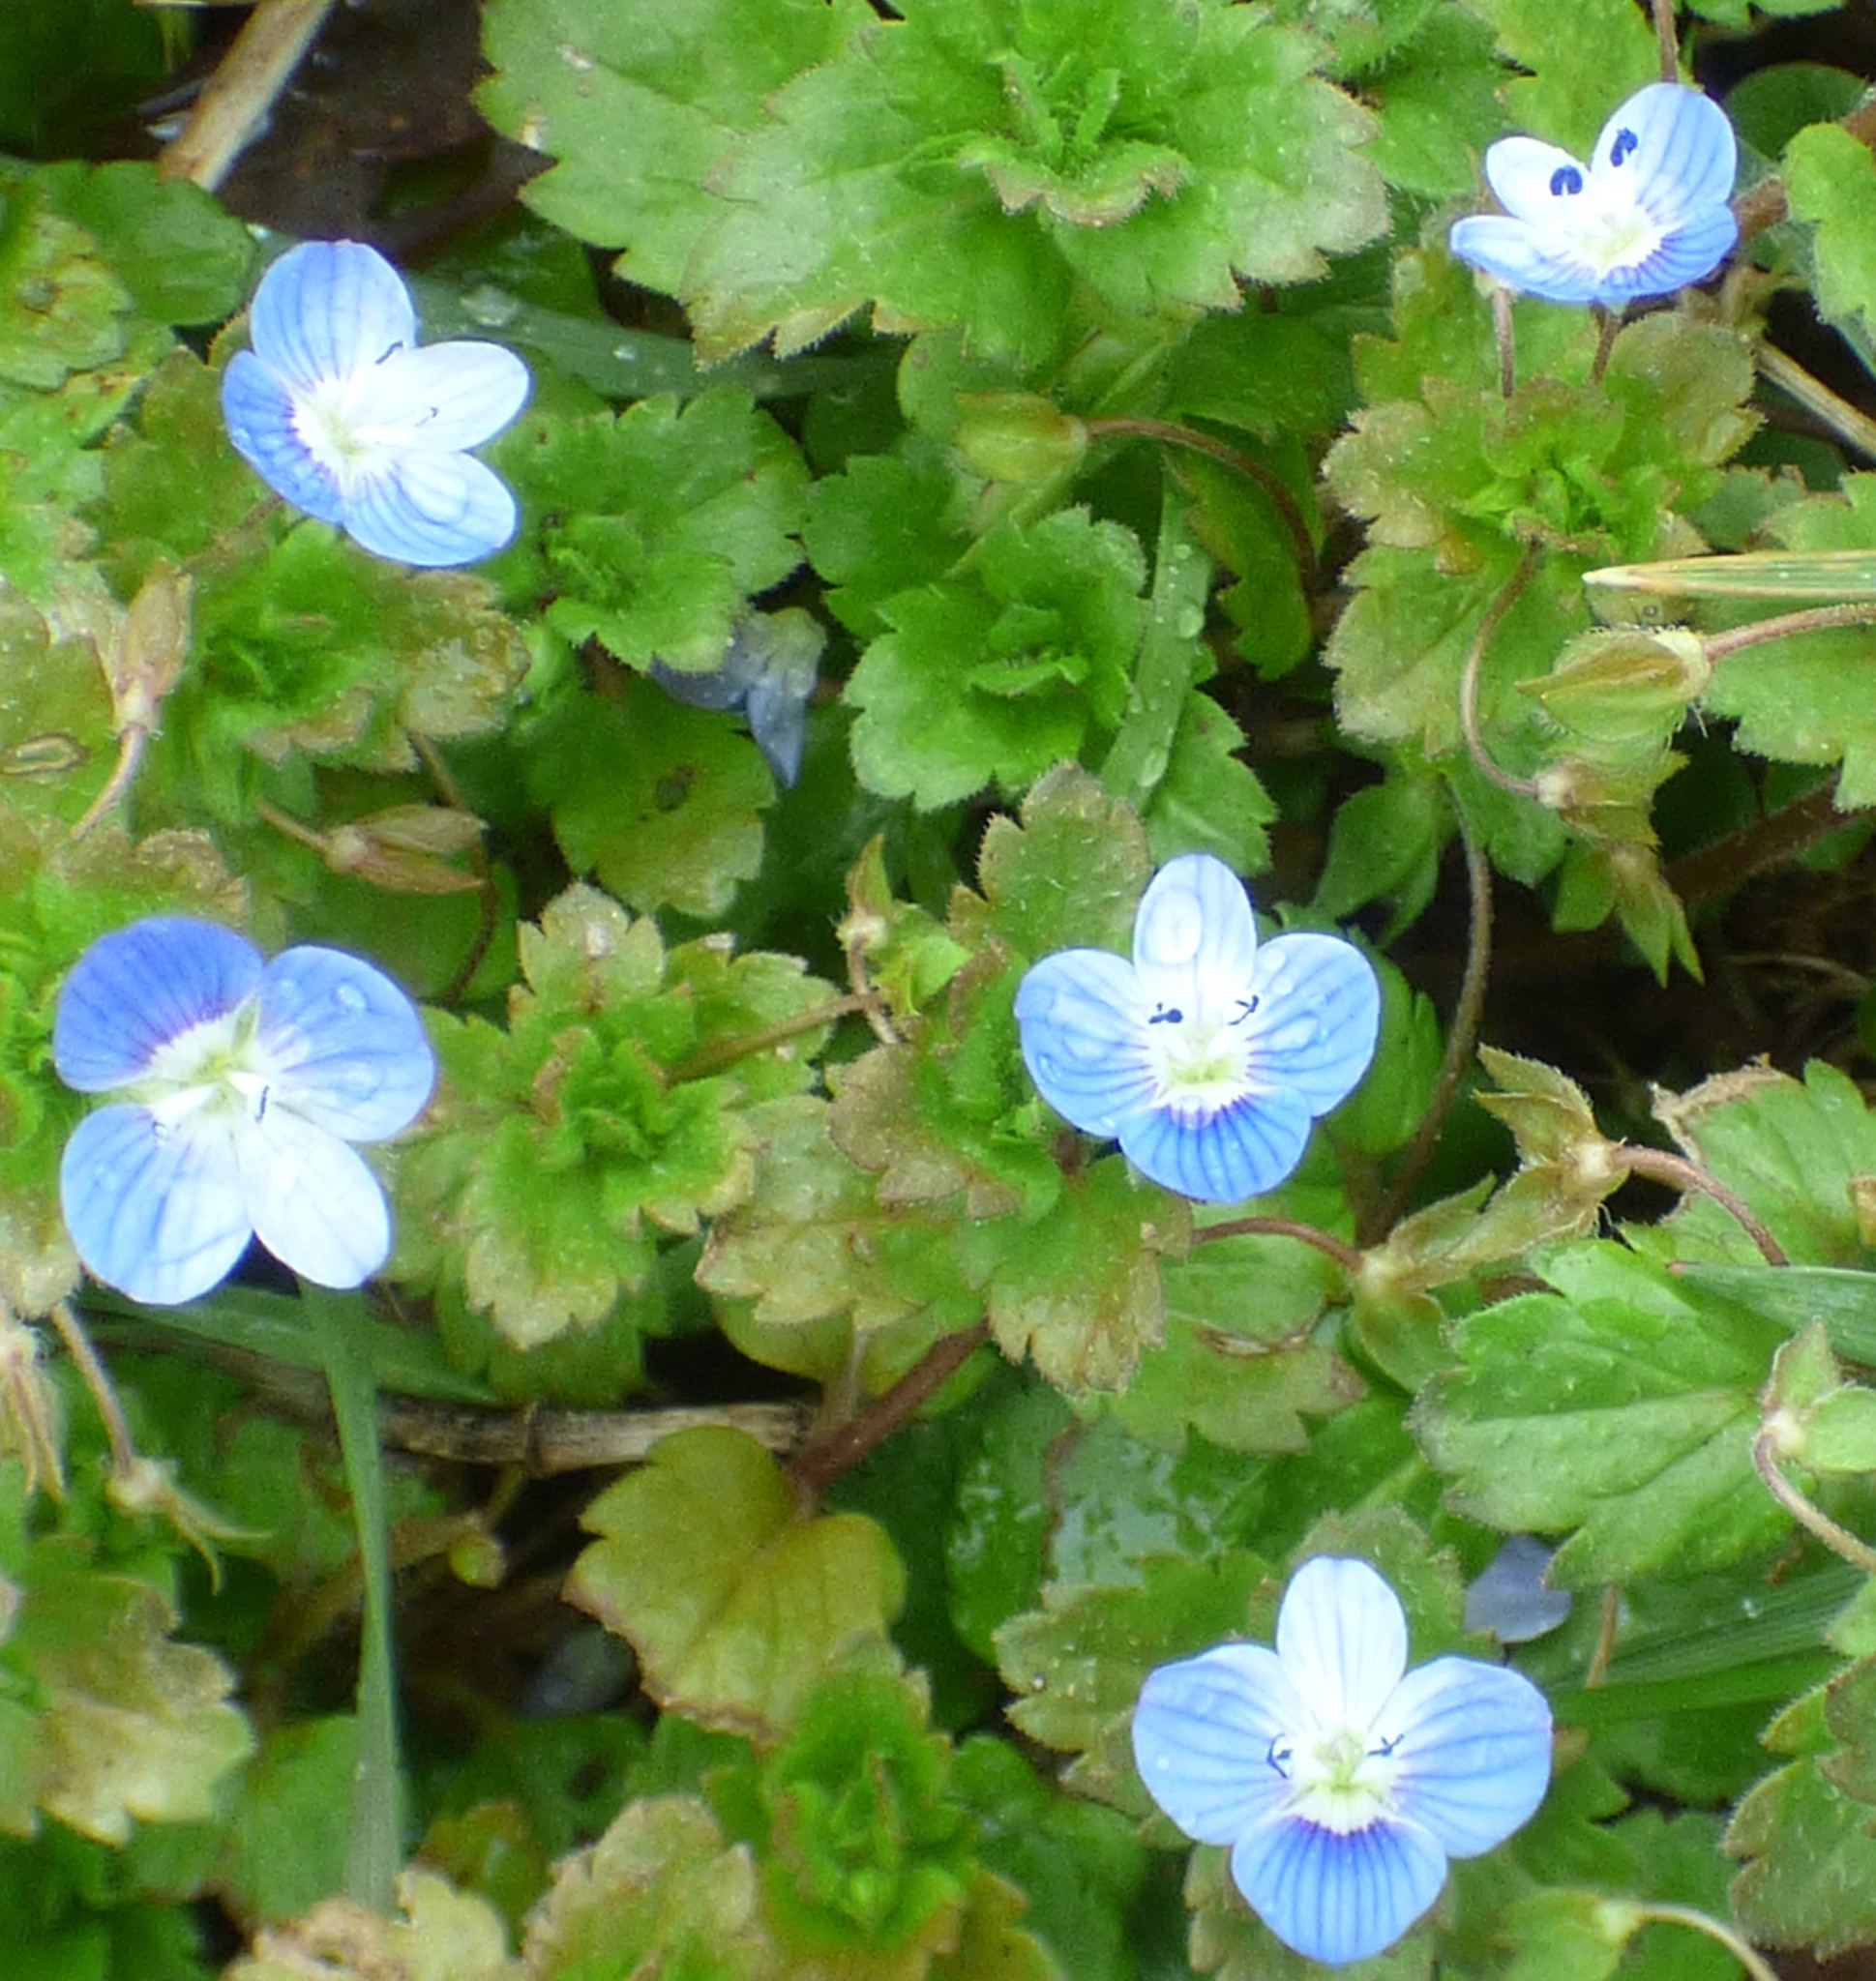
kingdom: Plantae
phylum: Tracheophyta
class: Magnoliopsida
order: Lamiales
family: Plantaginaceae
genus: Veronica
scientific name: Veronica persica
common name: Common field-speedwell
